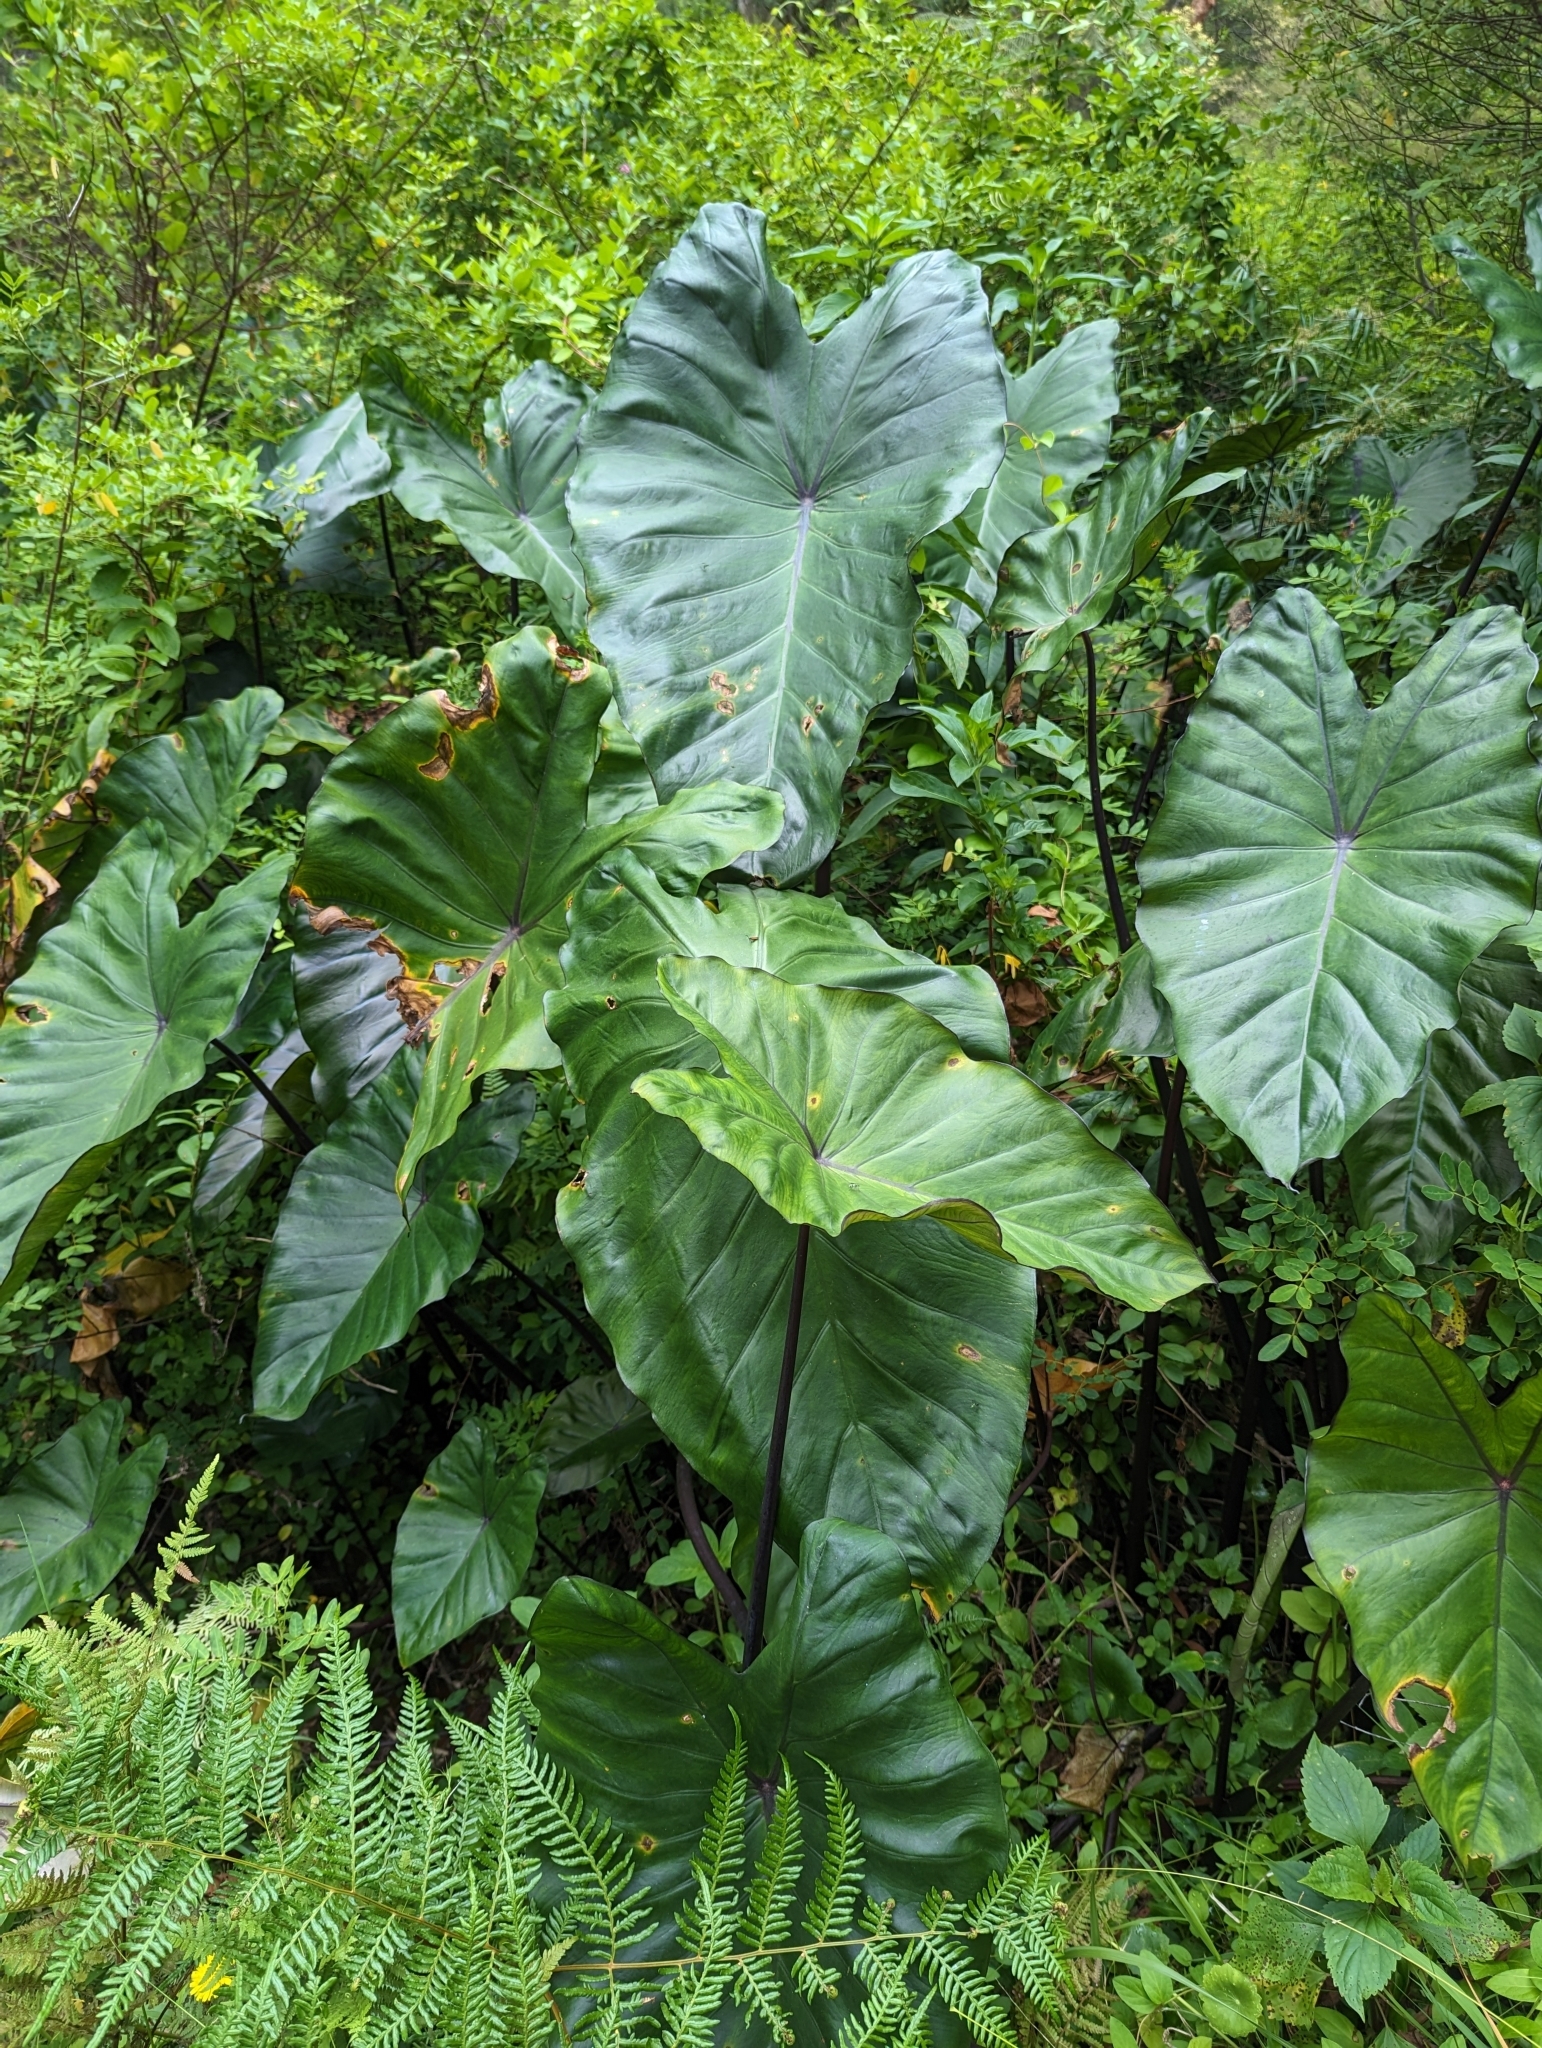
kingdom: Plantae
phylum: Tracheophyta
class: Liliopsida
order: Alismatales
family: Araceae
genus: Colocasia
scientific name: Colocasia fontanesii
